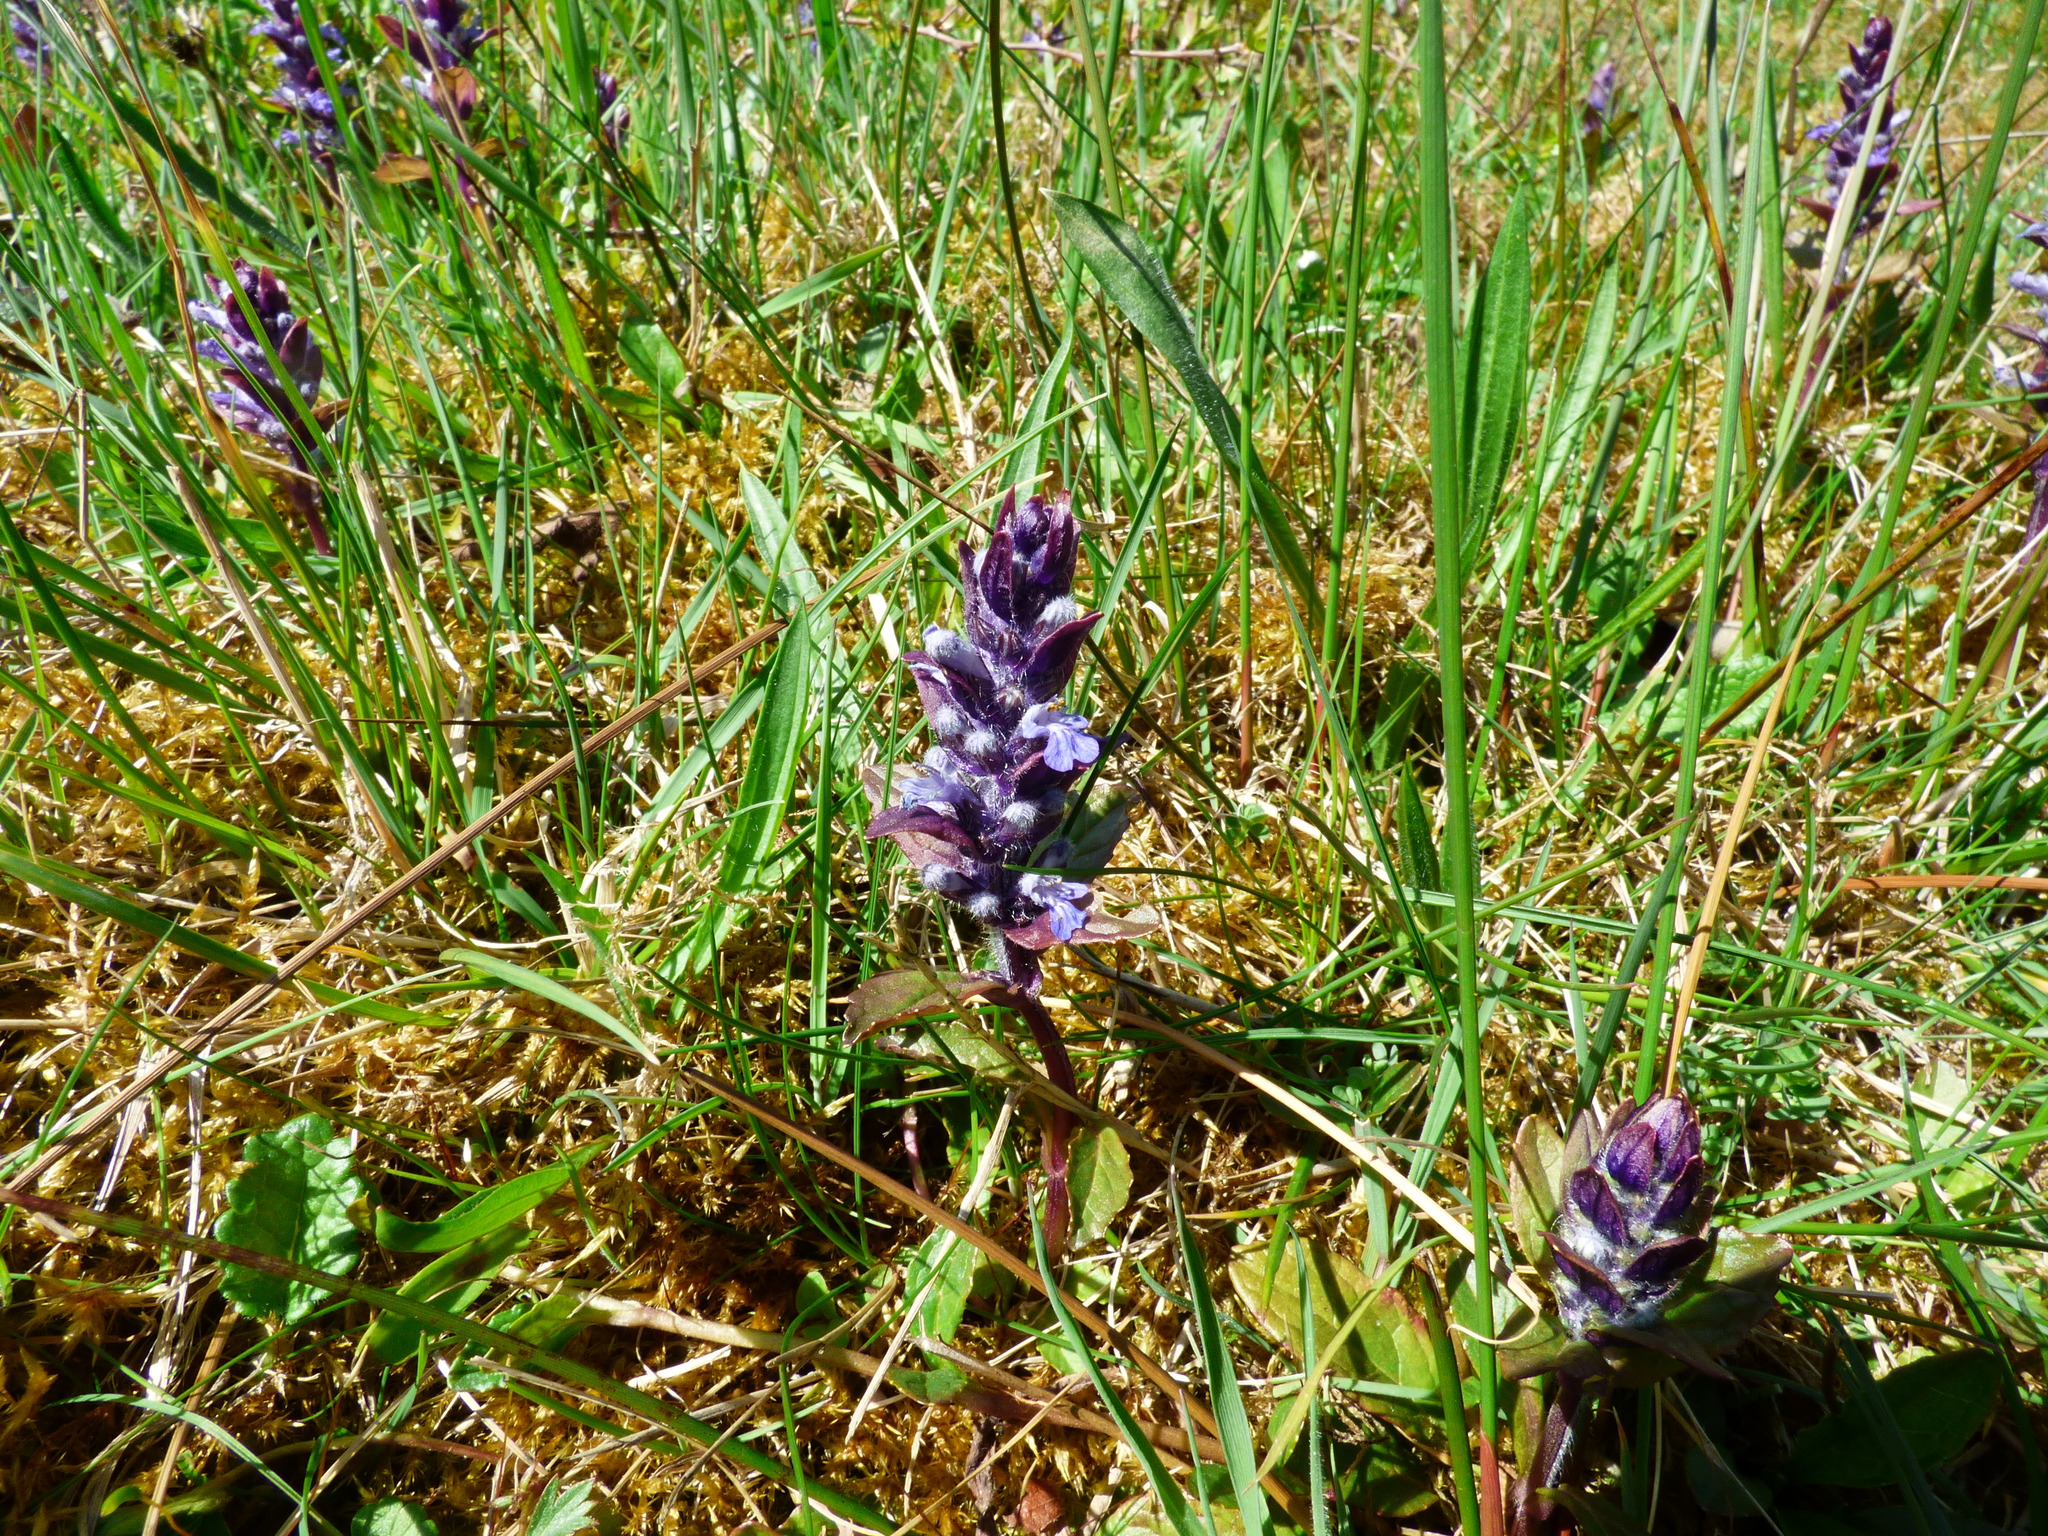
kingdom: Plantae
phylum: Tracheophyta
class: Magnoliopsida
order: Lamiales
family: Lamiaceae
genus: Ajuga
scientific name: Ajuga reptans
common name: Bugle
